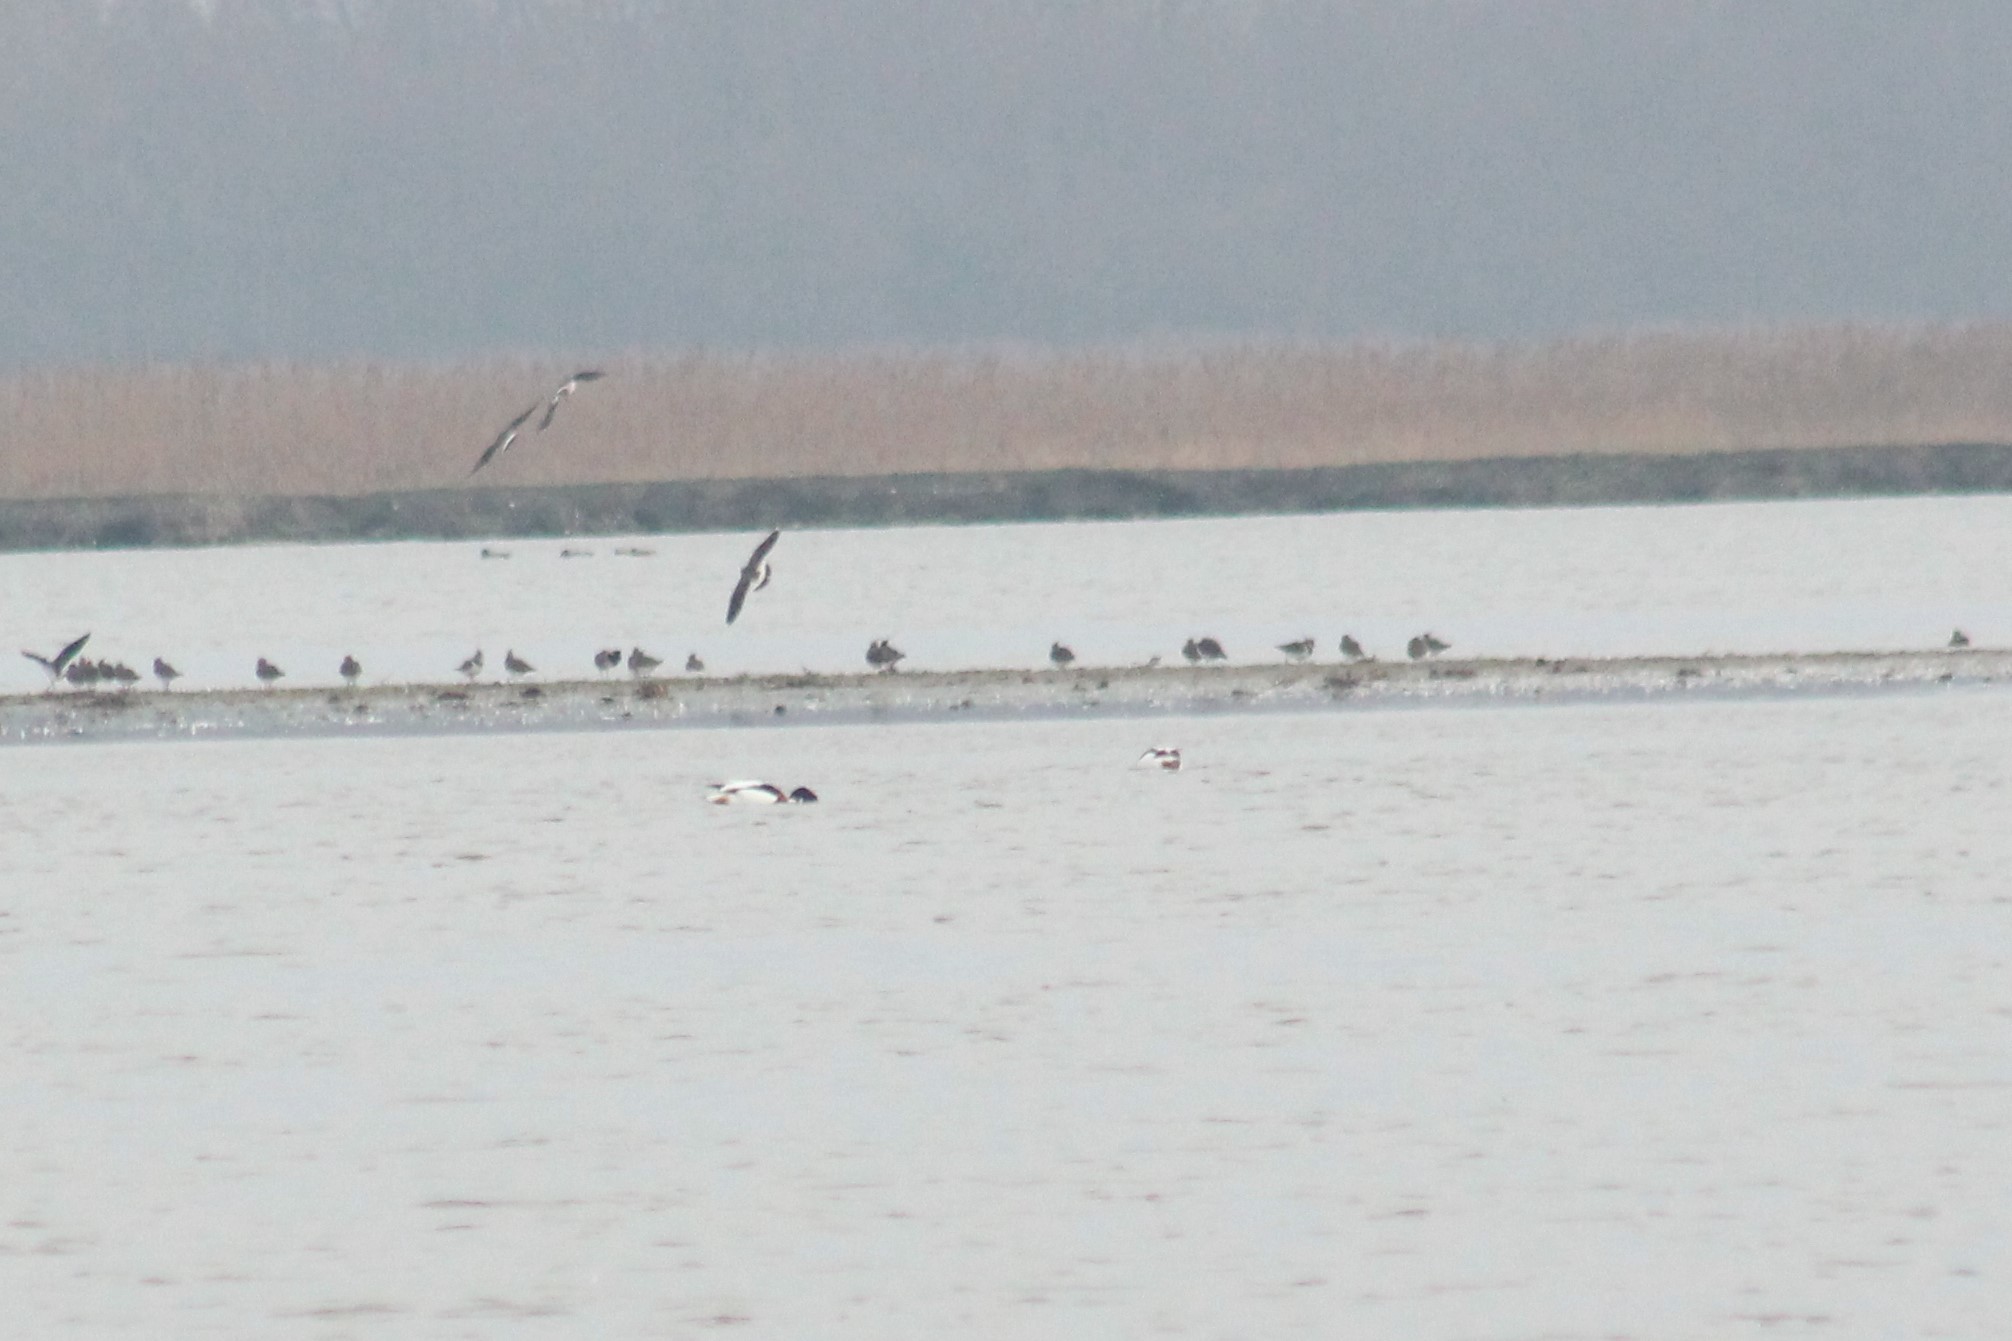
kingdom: Animalia
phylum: Chordata
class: Aves
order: Anseriformes
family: Anatidae
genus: Tadorna
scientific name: Tadorna tadorna
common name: Common shelduck
